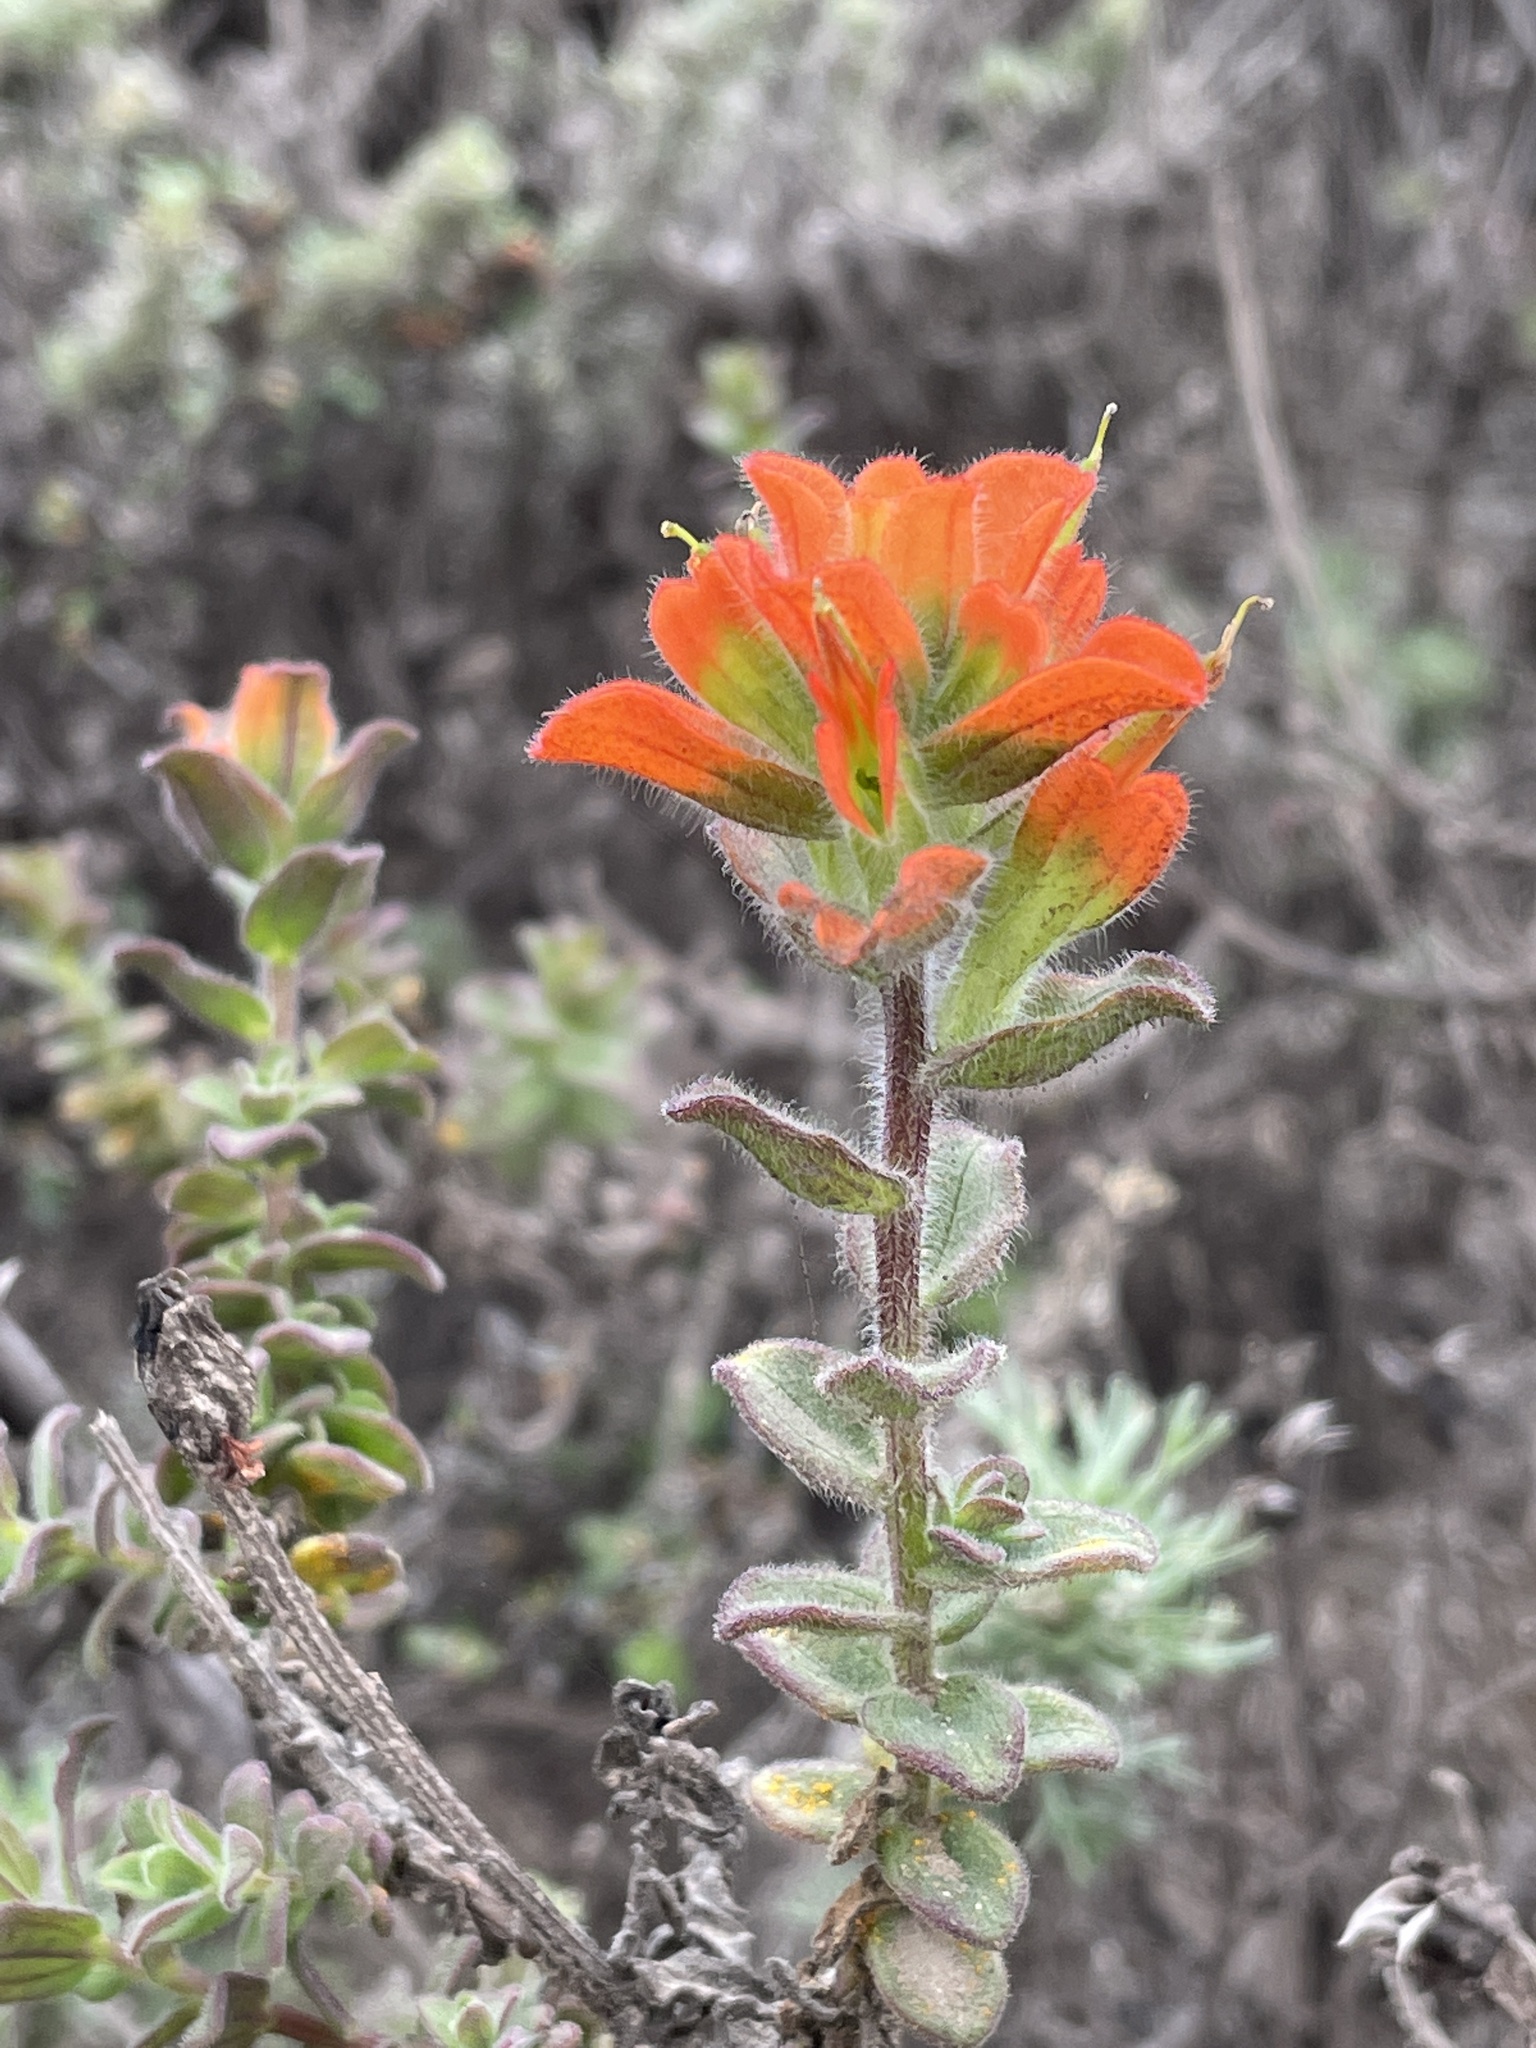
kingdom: Plantae
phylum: Tracheophyta
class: Magnoliopsida
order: Lamiales
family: Orobanchaceae
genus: Castilleja
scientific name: Castilleja latifolia
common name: Monterey indian paintbrush
